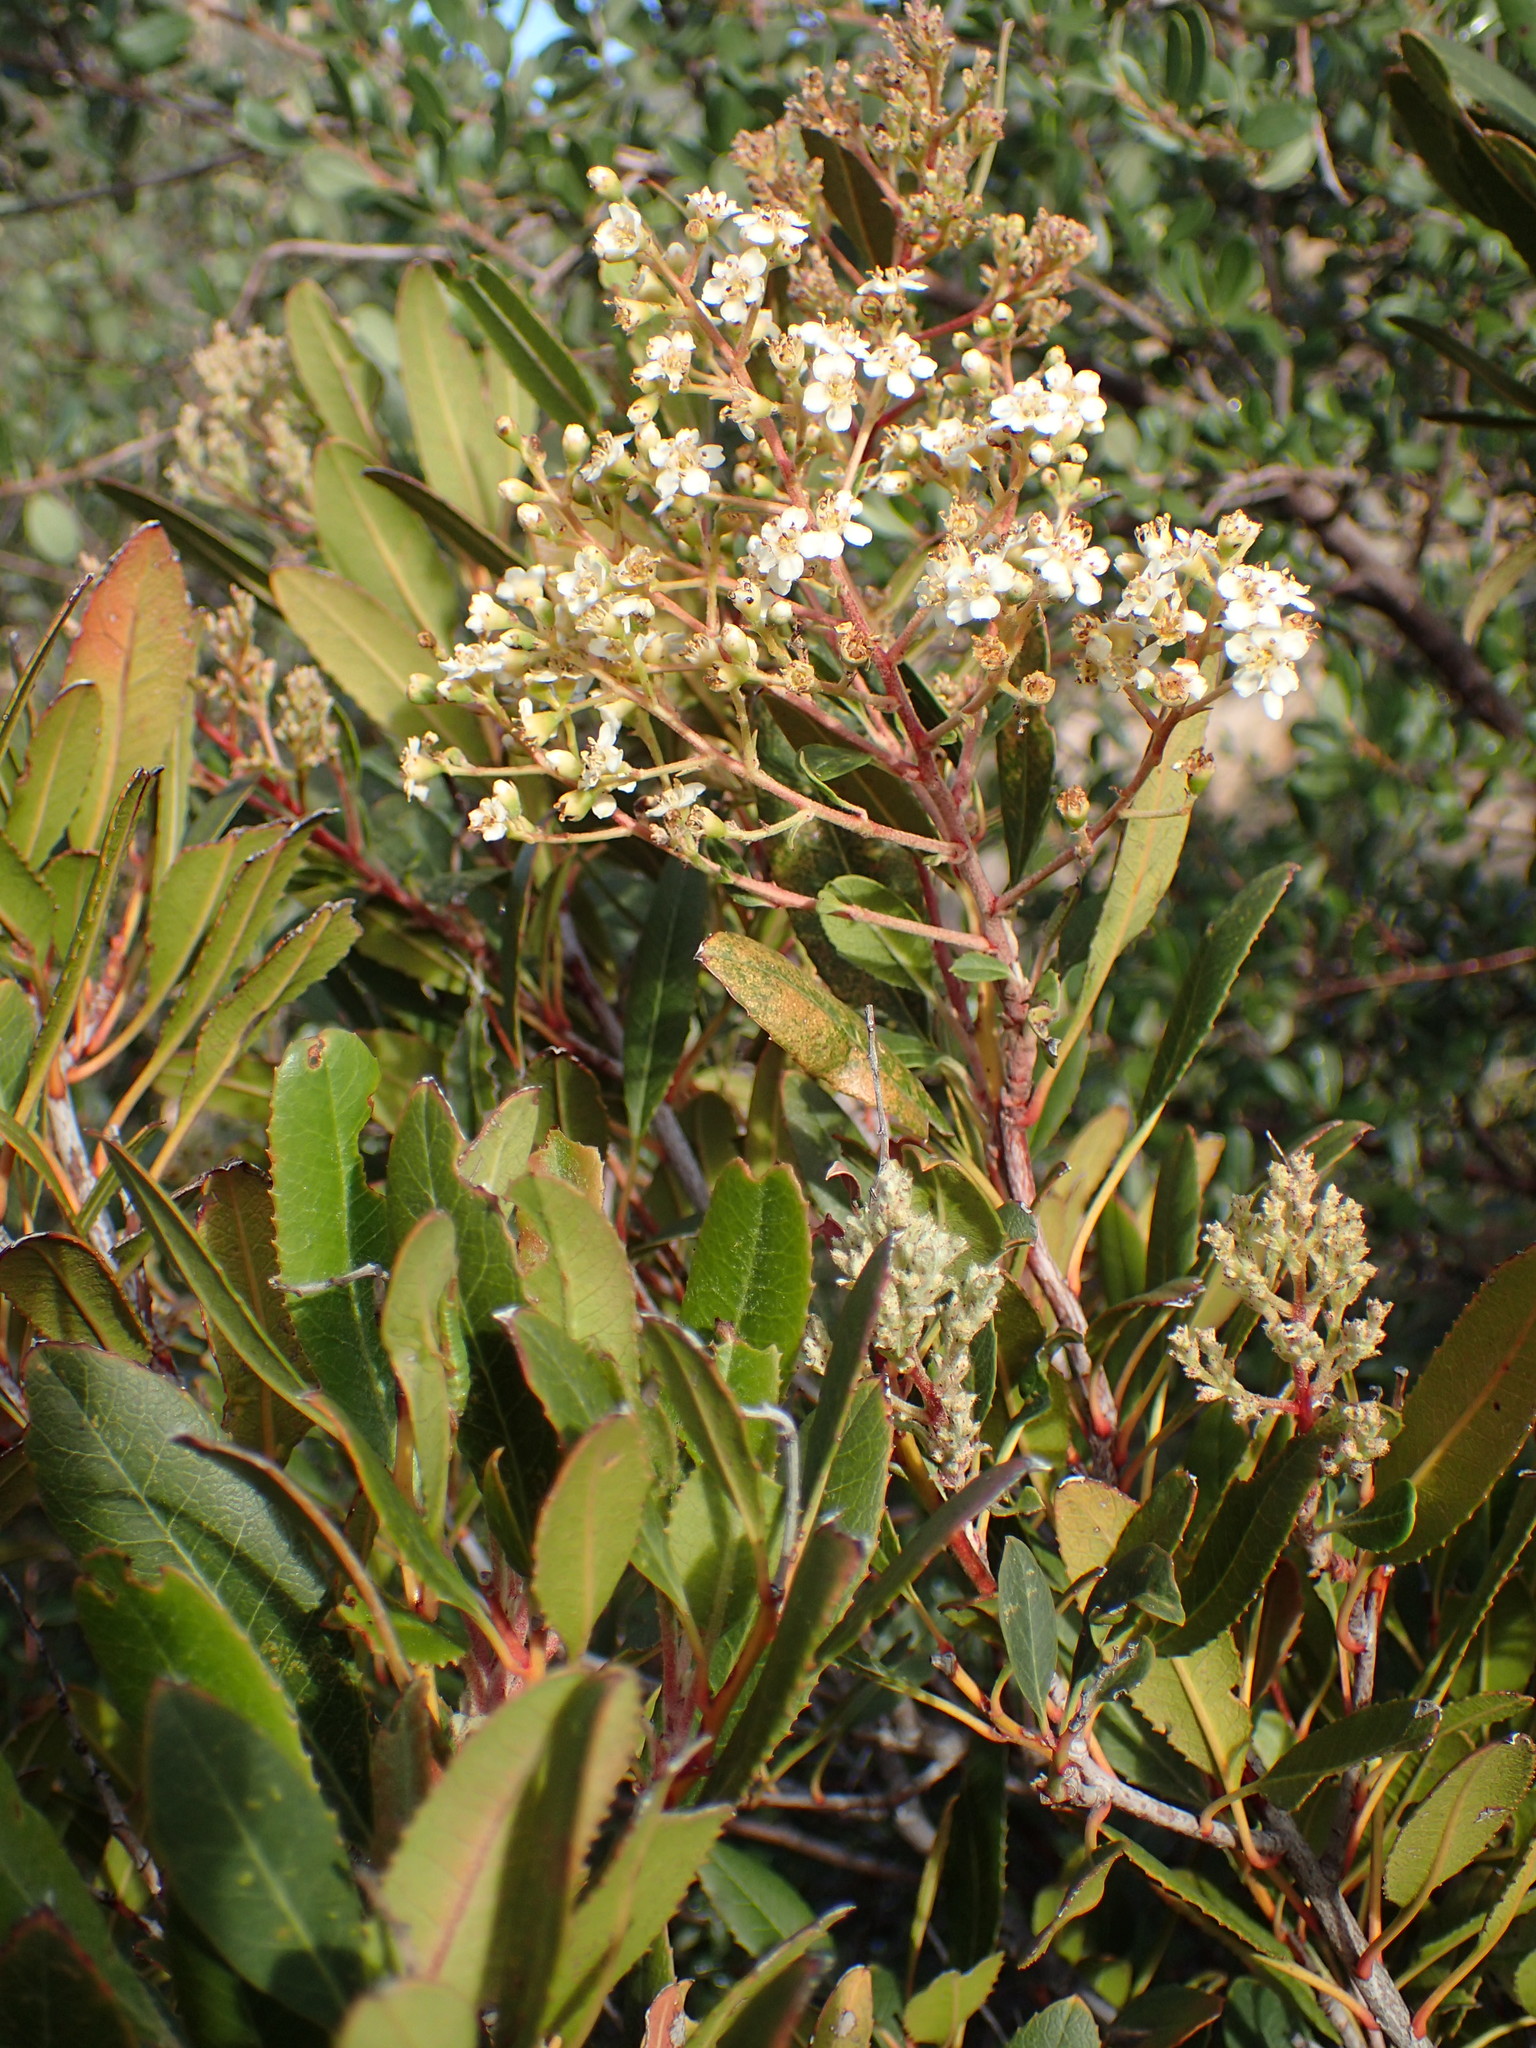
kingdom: Plantae
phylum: Tracheophyta
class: Magnoliopsida
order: Rosales
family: Rosaceae
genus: Heteromeles
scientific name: Heteromeles arbutifolia
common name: California-holly
